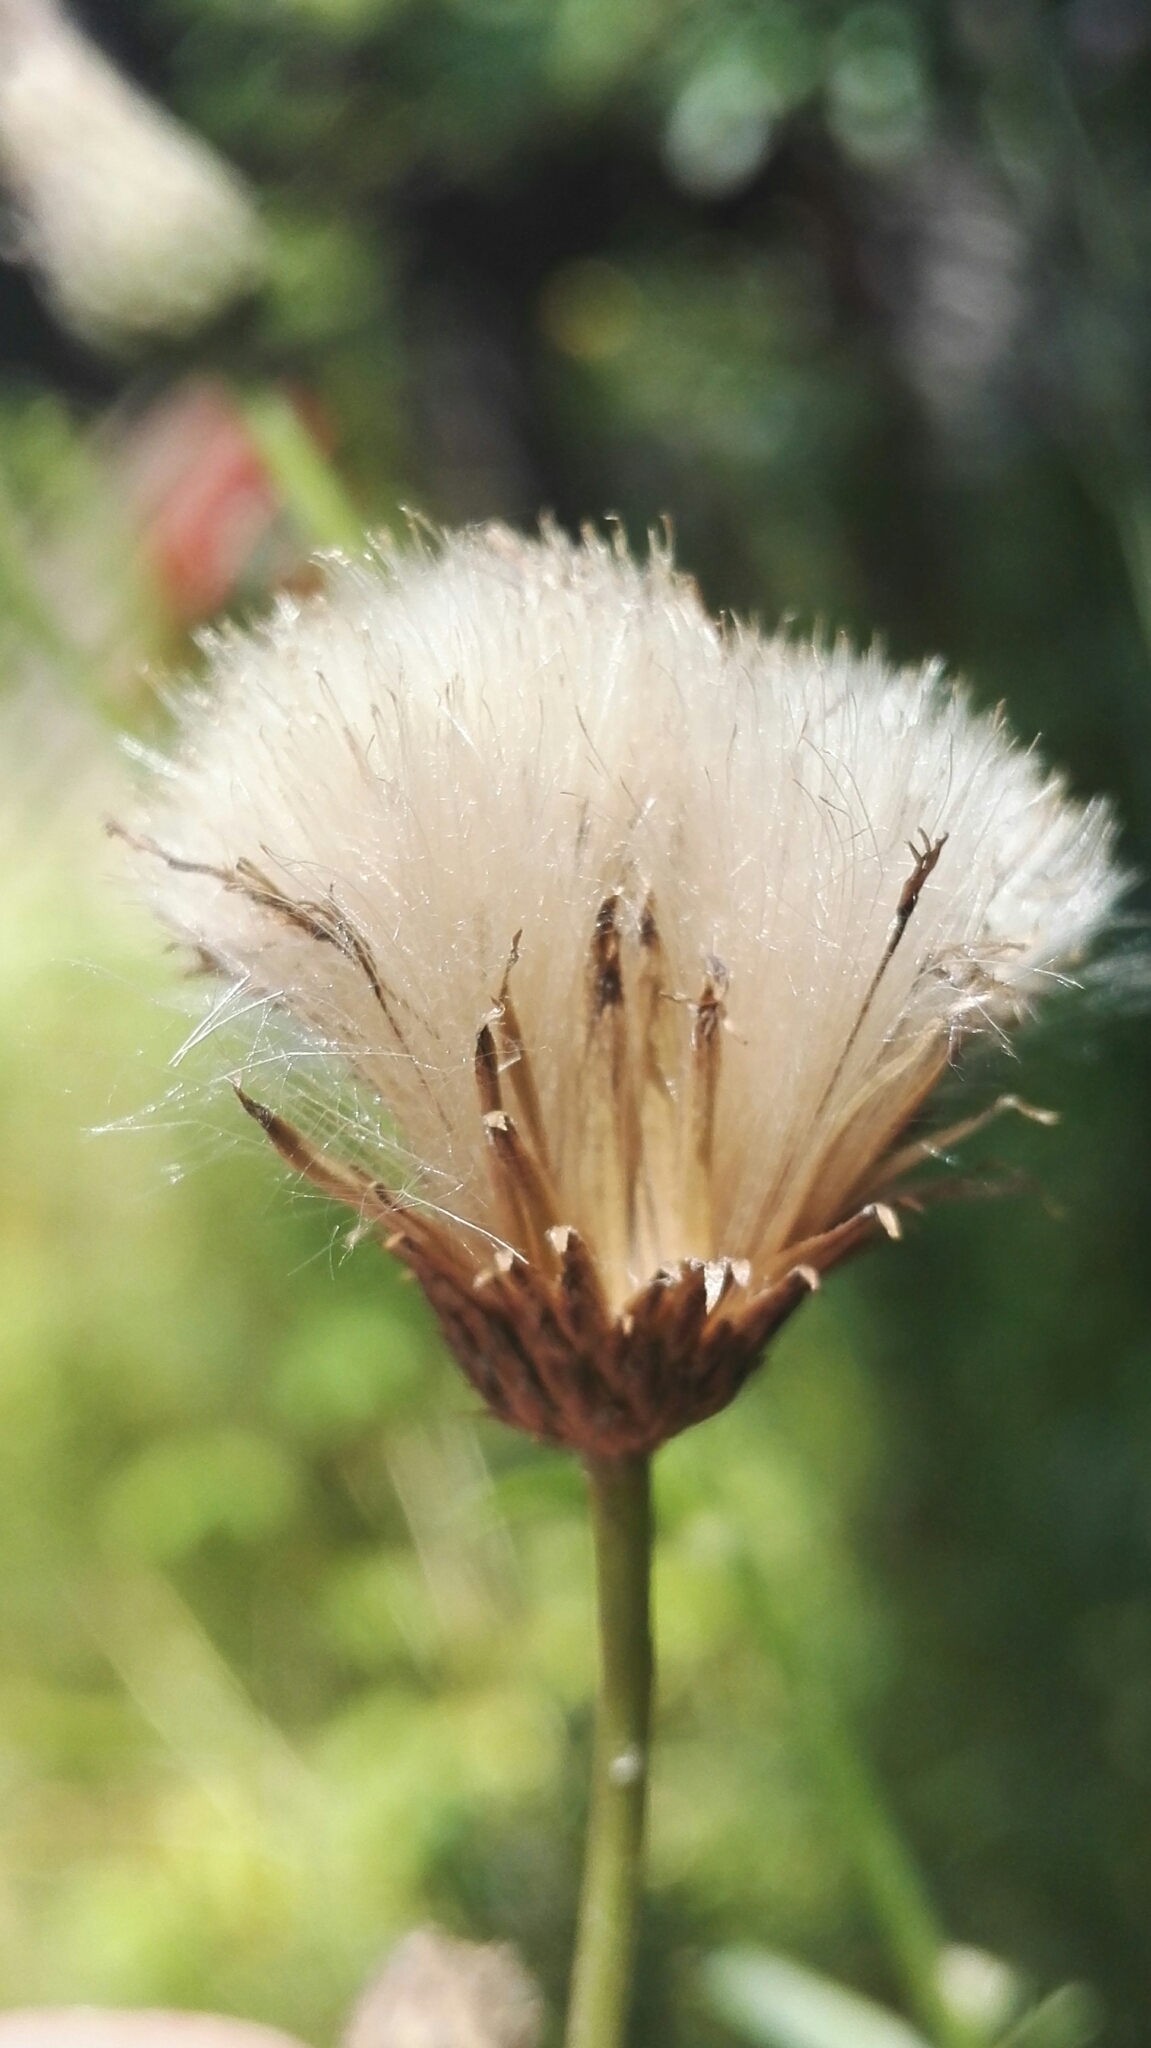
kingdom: Plantae
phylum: Tracheophyta
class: Magnoliopsida
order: Asterales
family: Asteraceae
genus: Cirsium
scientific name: Cirsium arvense
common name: Creeping thistle
